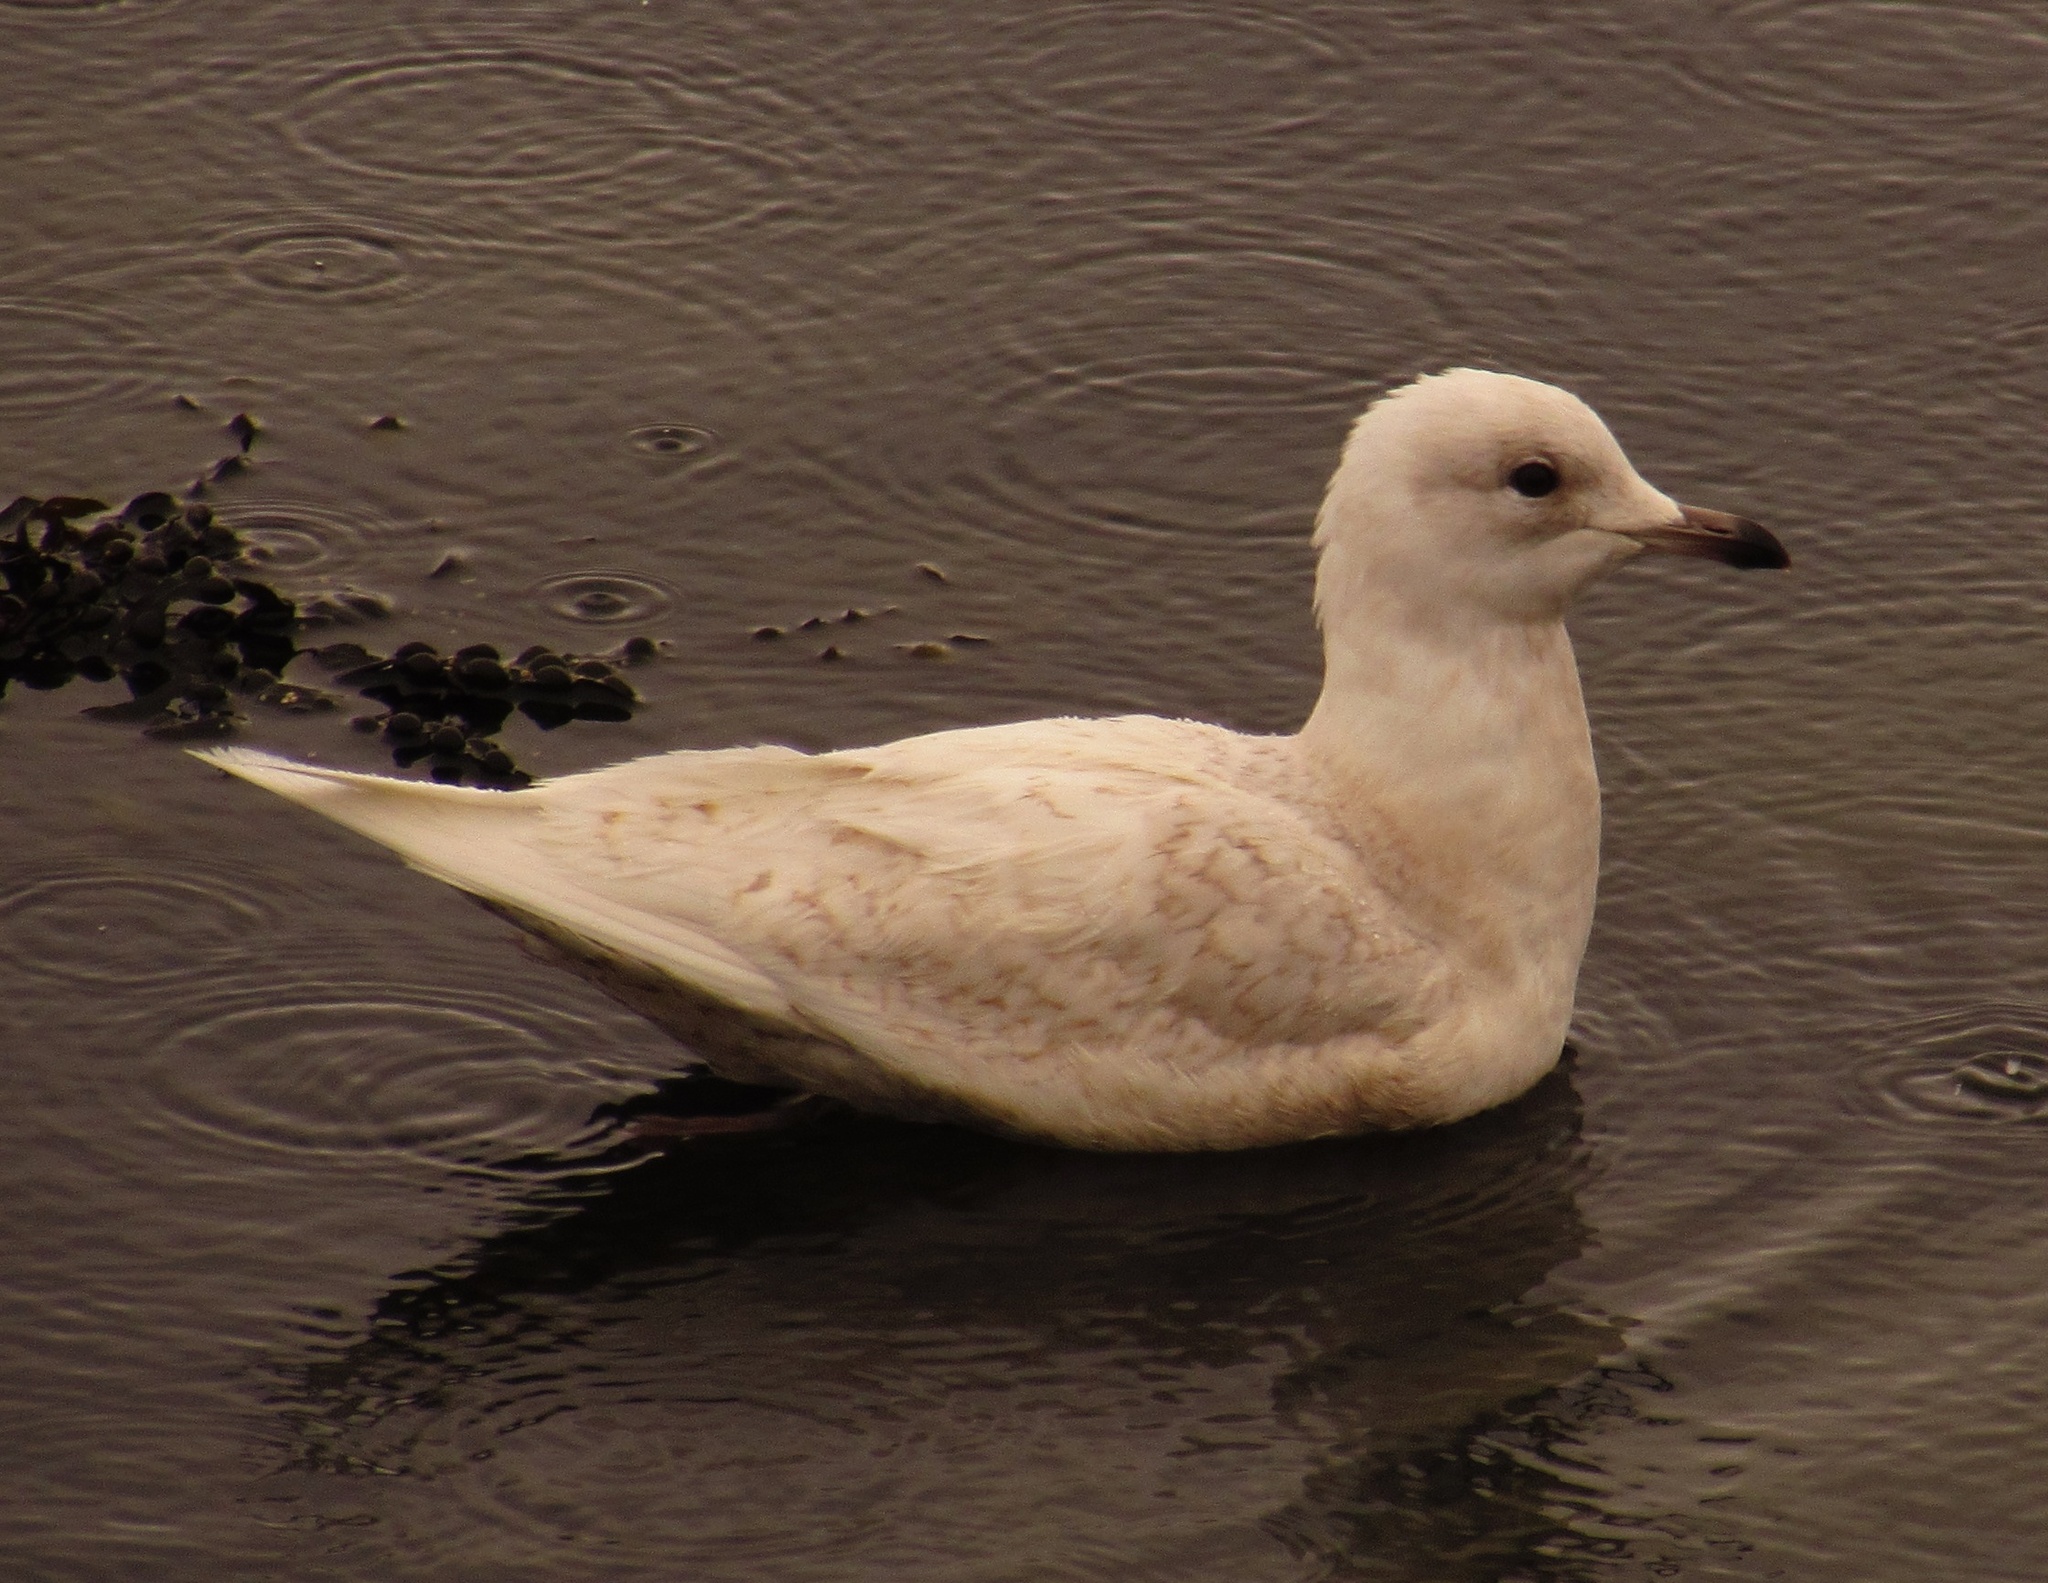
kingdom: Animalia
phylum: Chordata
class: Aves
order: Charadriiformes
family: Laridae
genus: Larus
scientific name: Larus glaucoides
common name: Iceland gull
